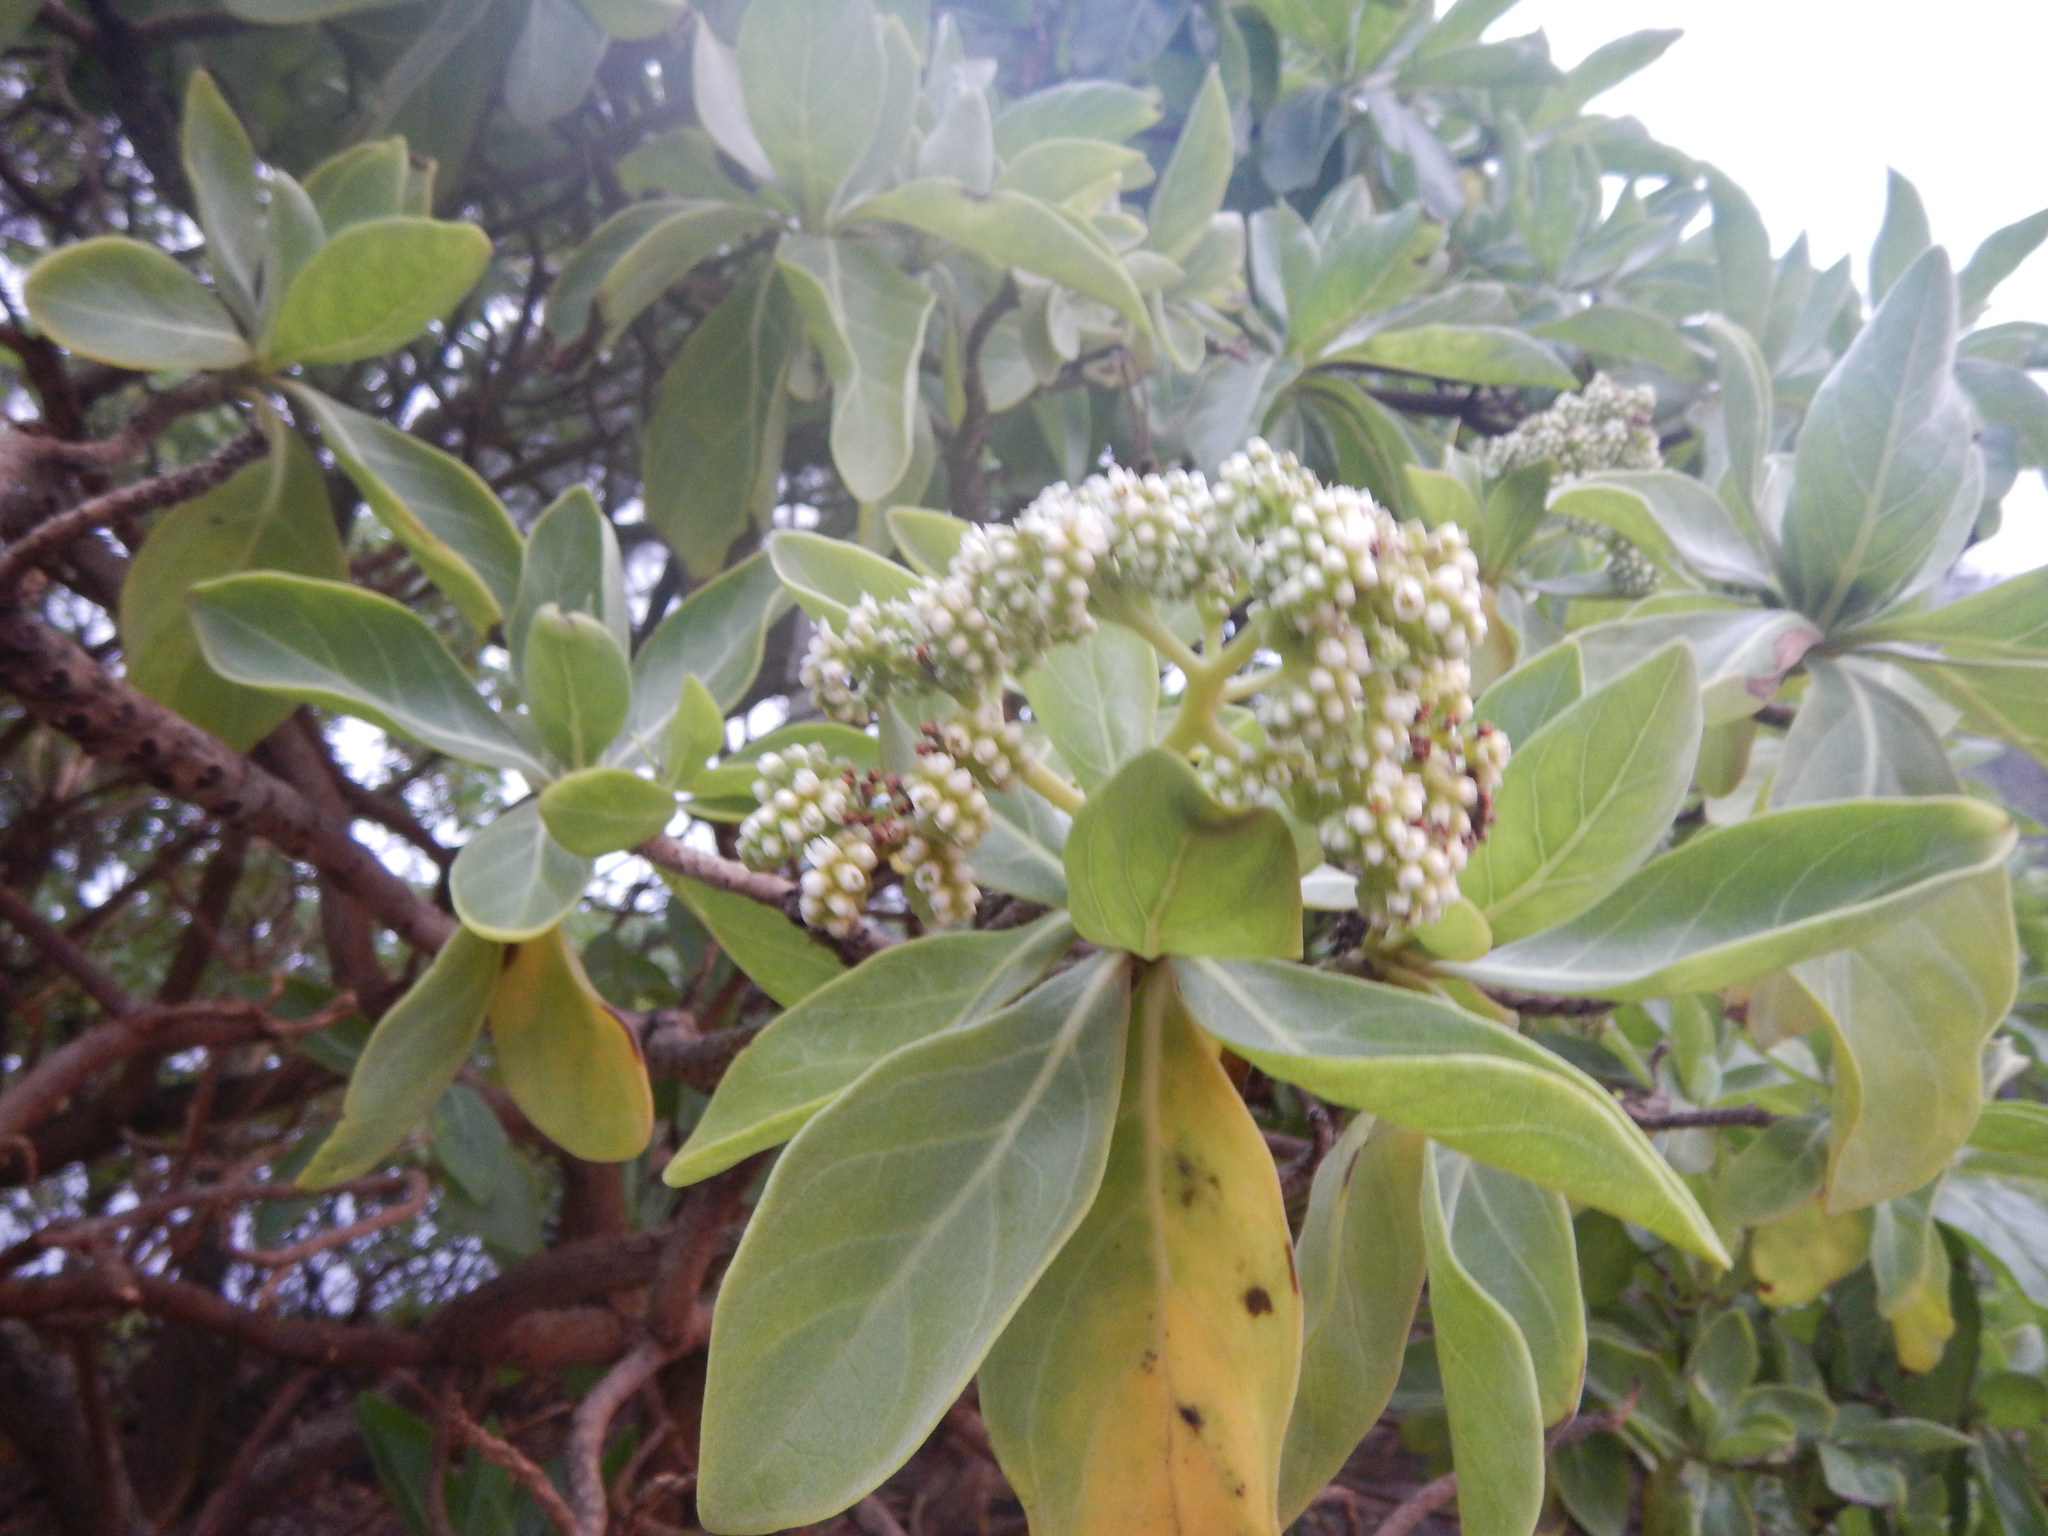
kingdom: Plantae
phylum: Tracheophyta
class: Magnoliopsida
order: Boraginales
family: Heliotropiaceae
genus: Heliotropium
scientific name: Heliotropium velutinum
